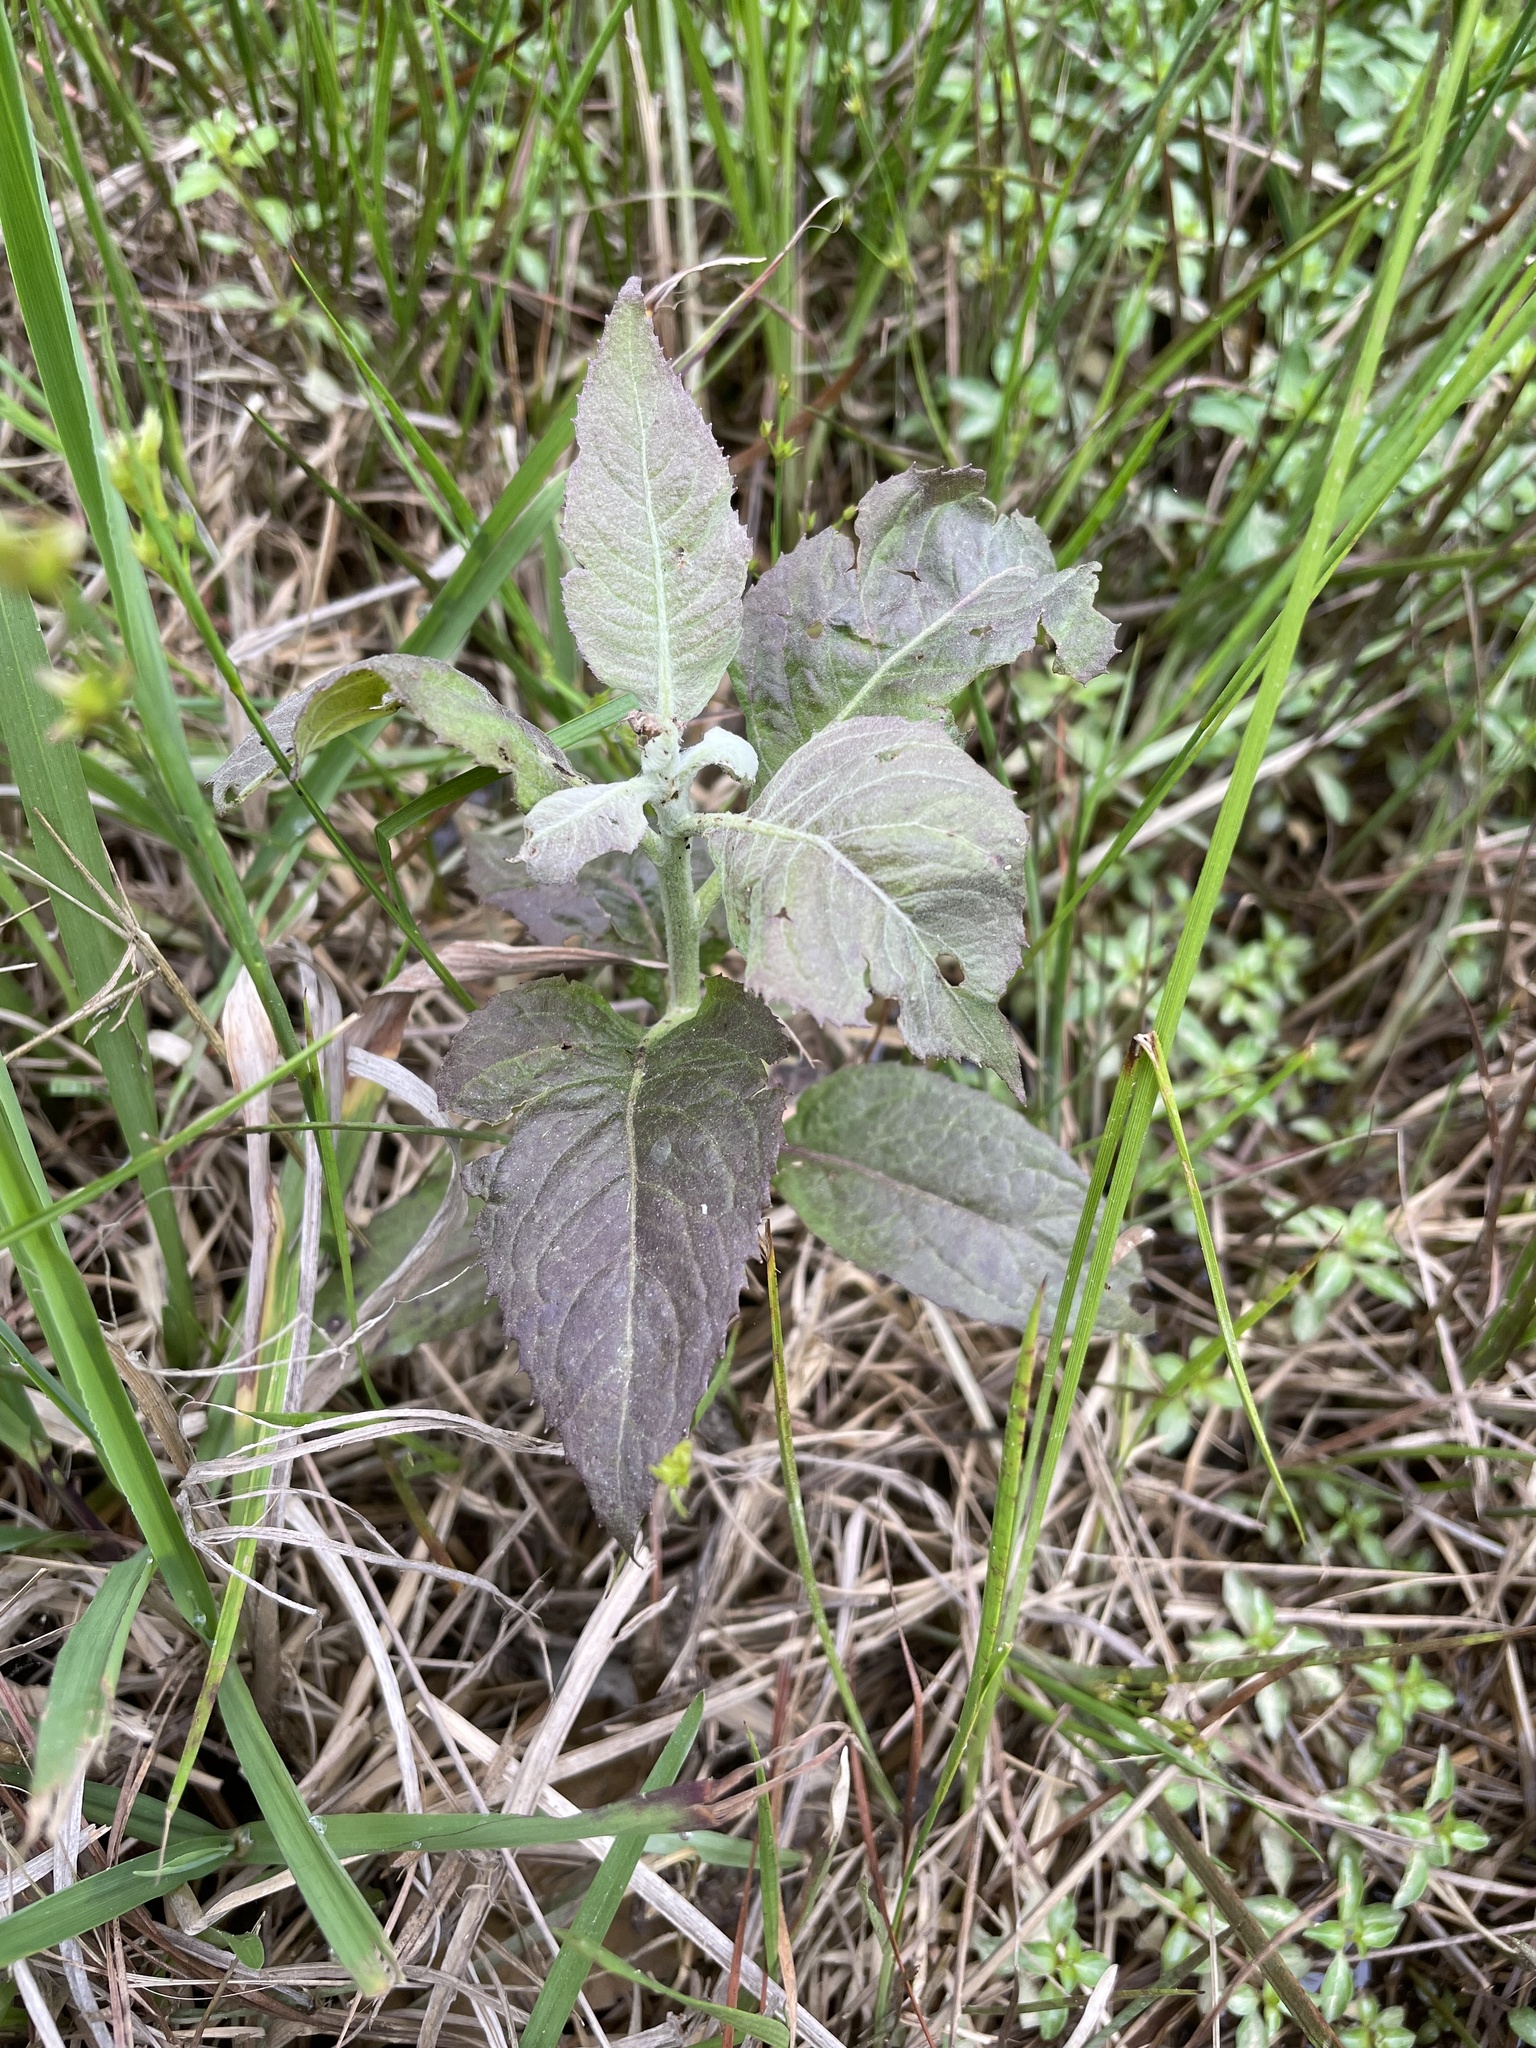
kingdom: Plantae
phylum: Tracheophyta
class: Magnoliopsida
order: Asterales
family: Asteraceae
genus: Pluchea
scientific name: Pluchea camphorata
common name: Camphor pluchea
